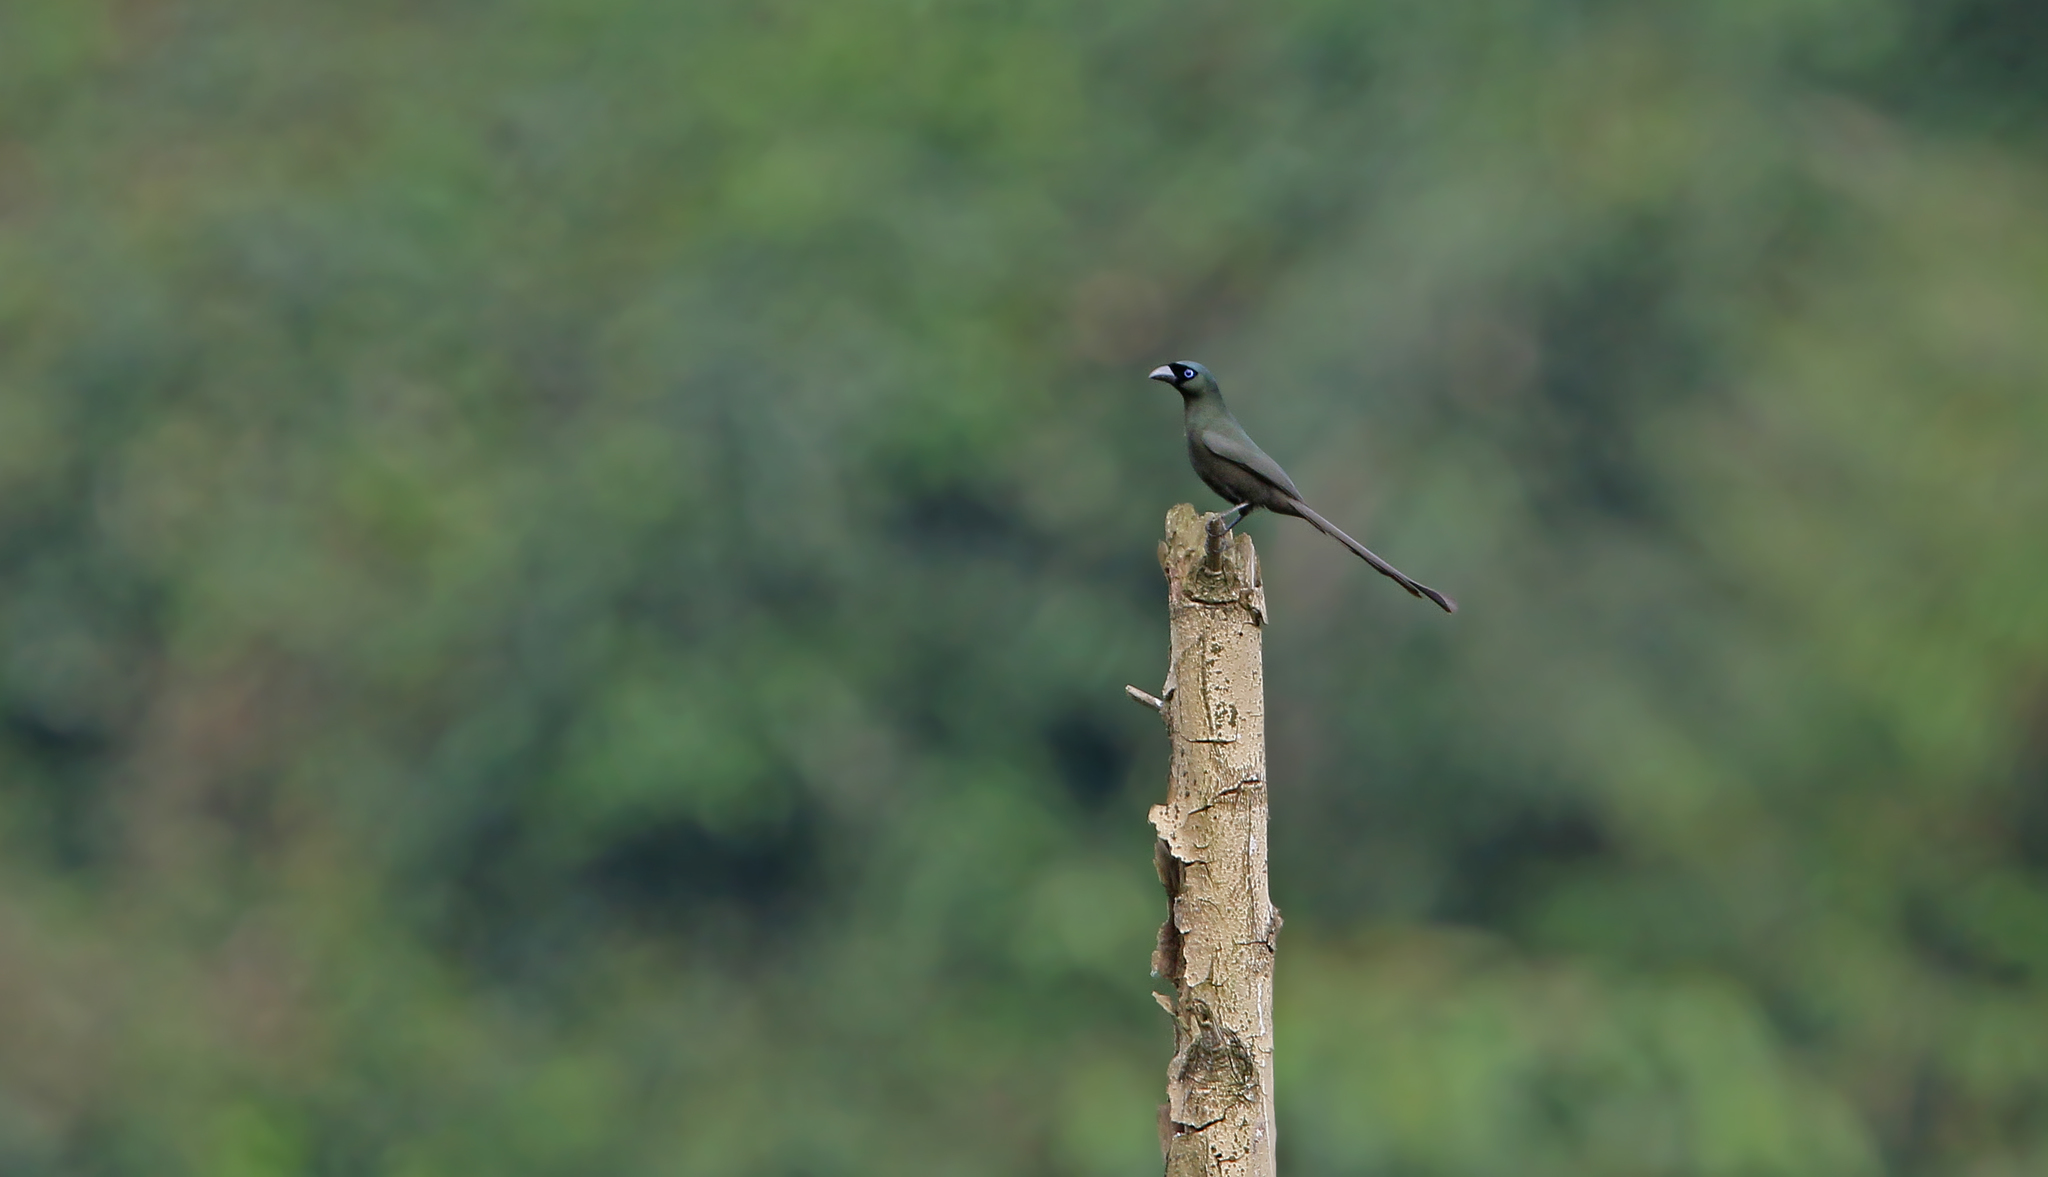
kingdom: Animalia
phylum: Chordata
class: Aves
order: Passeriformes
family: Corvidae
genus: Crypsirina
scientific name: Crypsirina temia
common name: Racket-tailed treepie
